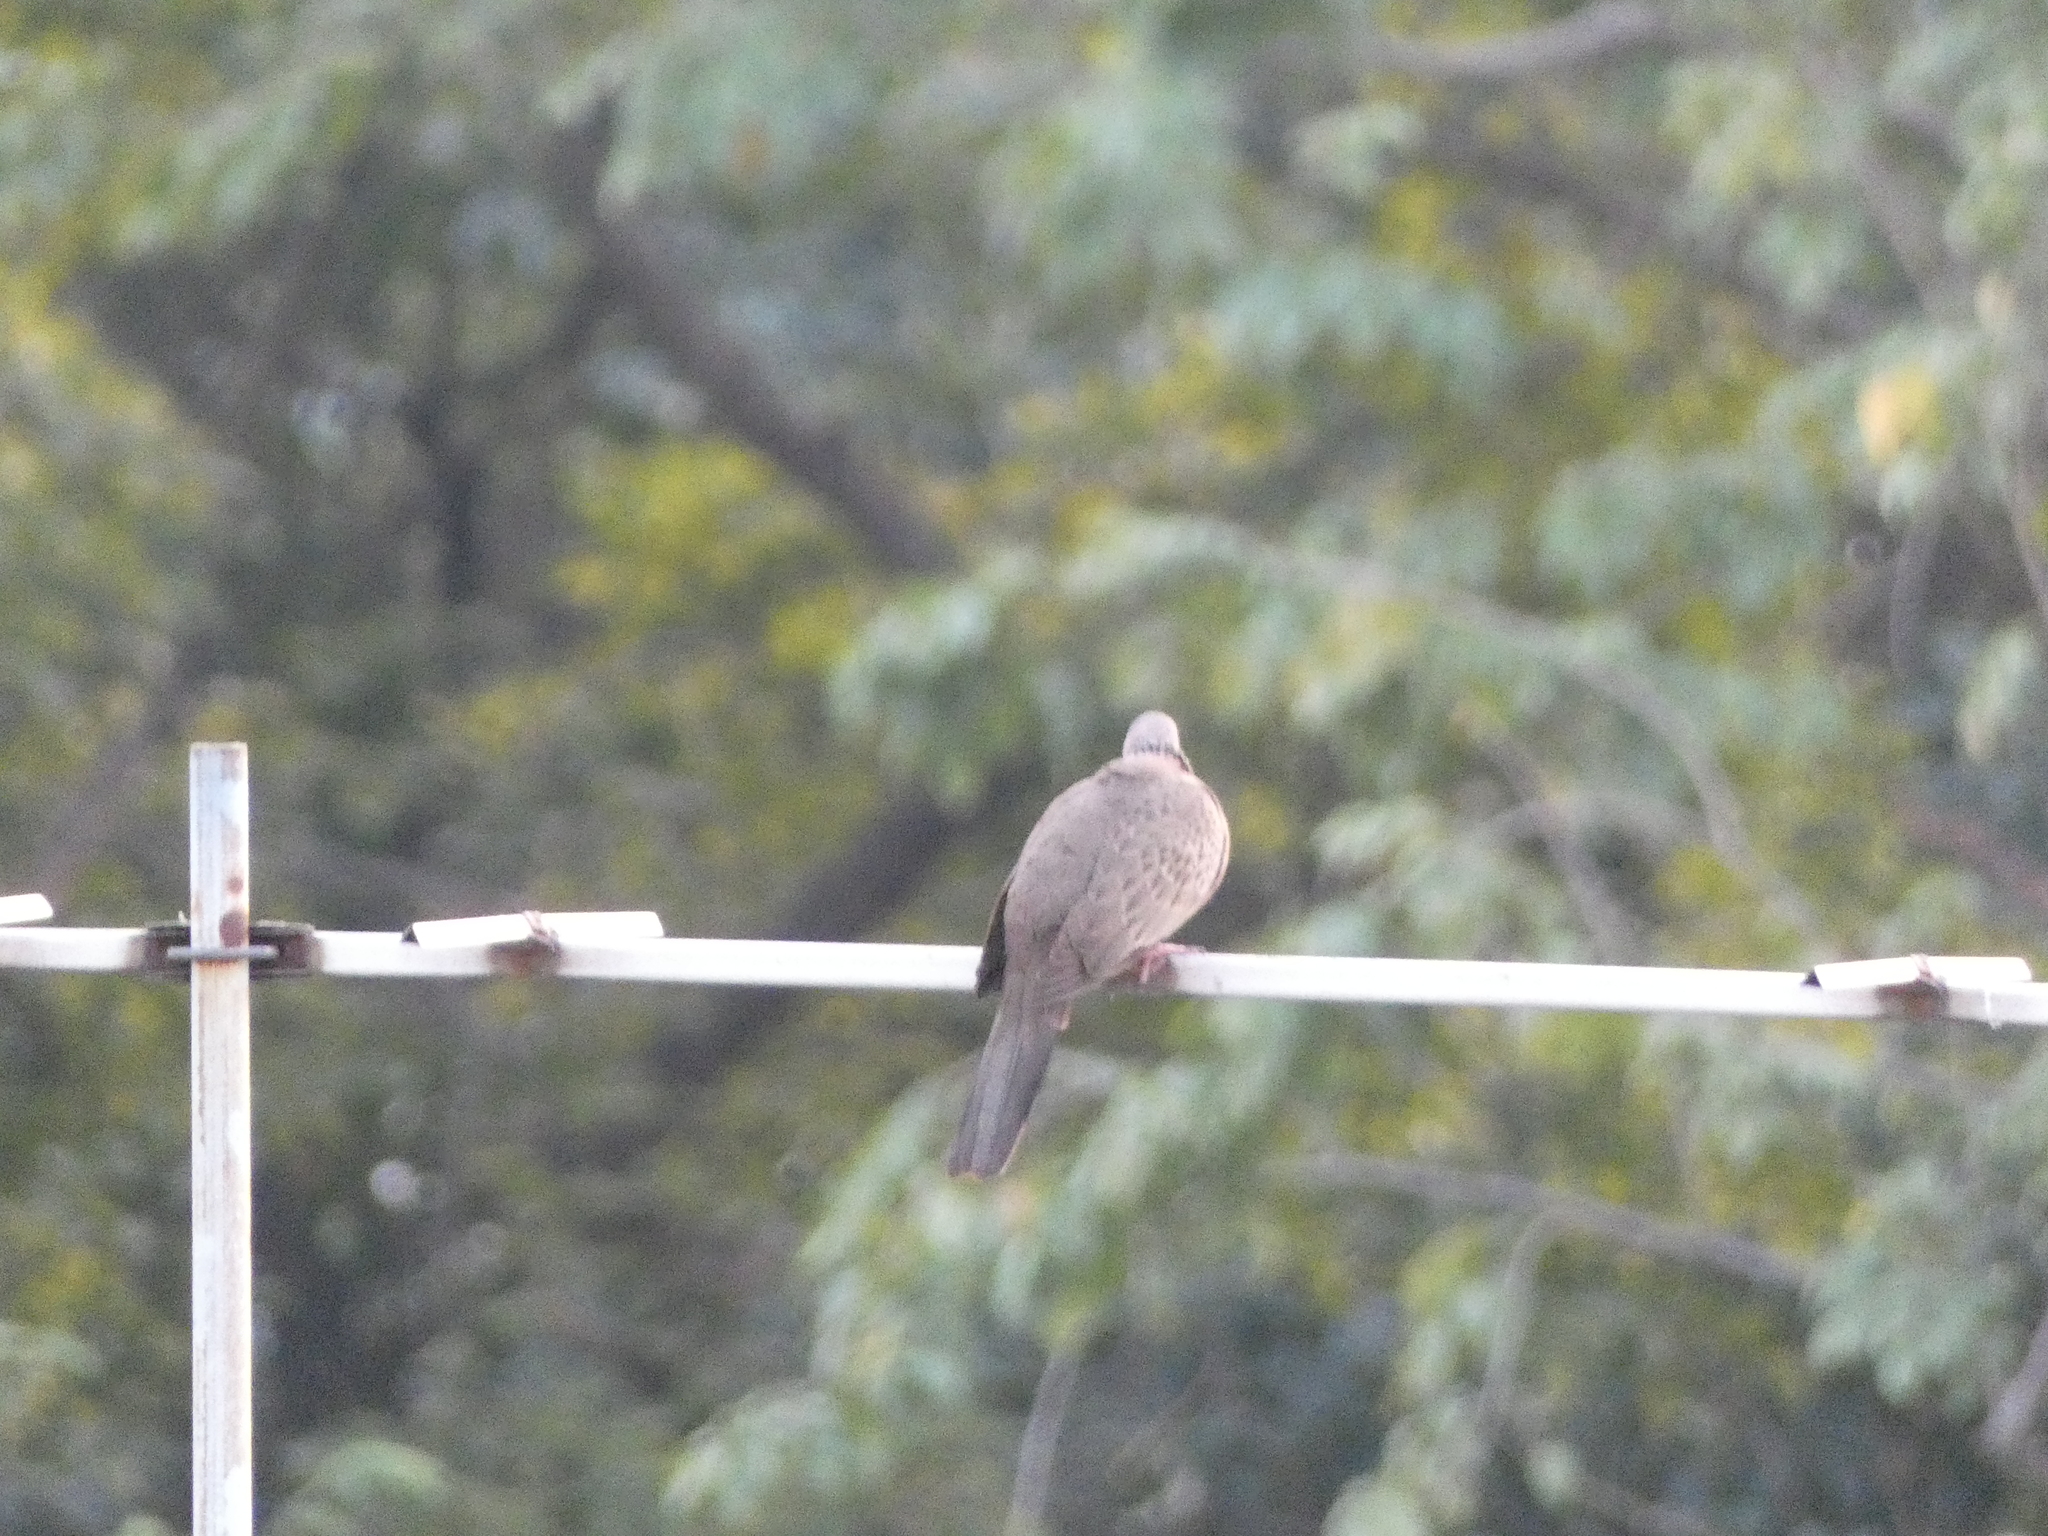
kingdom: Animalia
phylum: Chordata
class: Aves
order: Columbiformes
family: Columbidae
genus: Spilopelia
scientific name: Spilopelia chinensis
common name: Spotted dove
